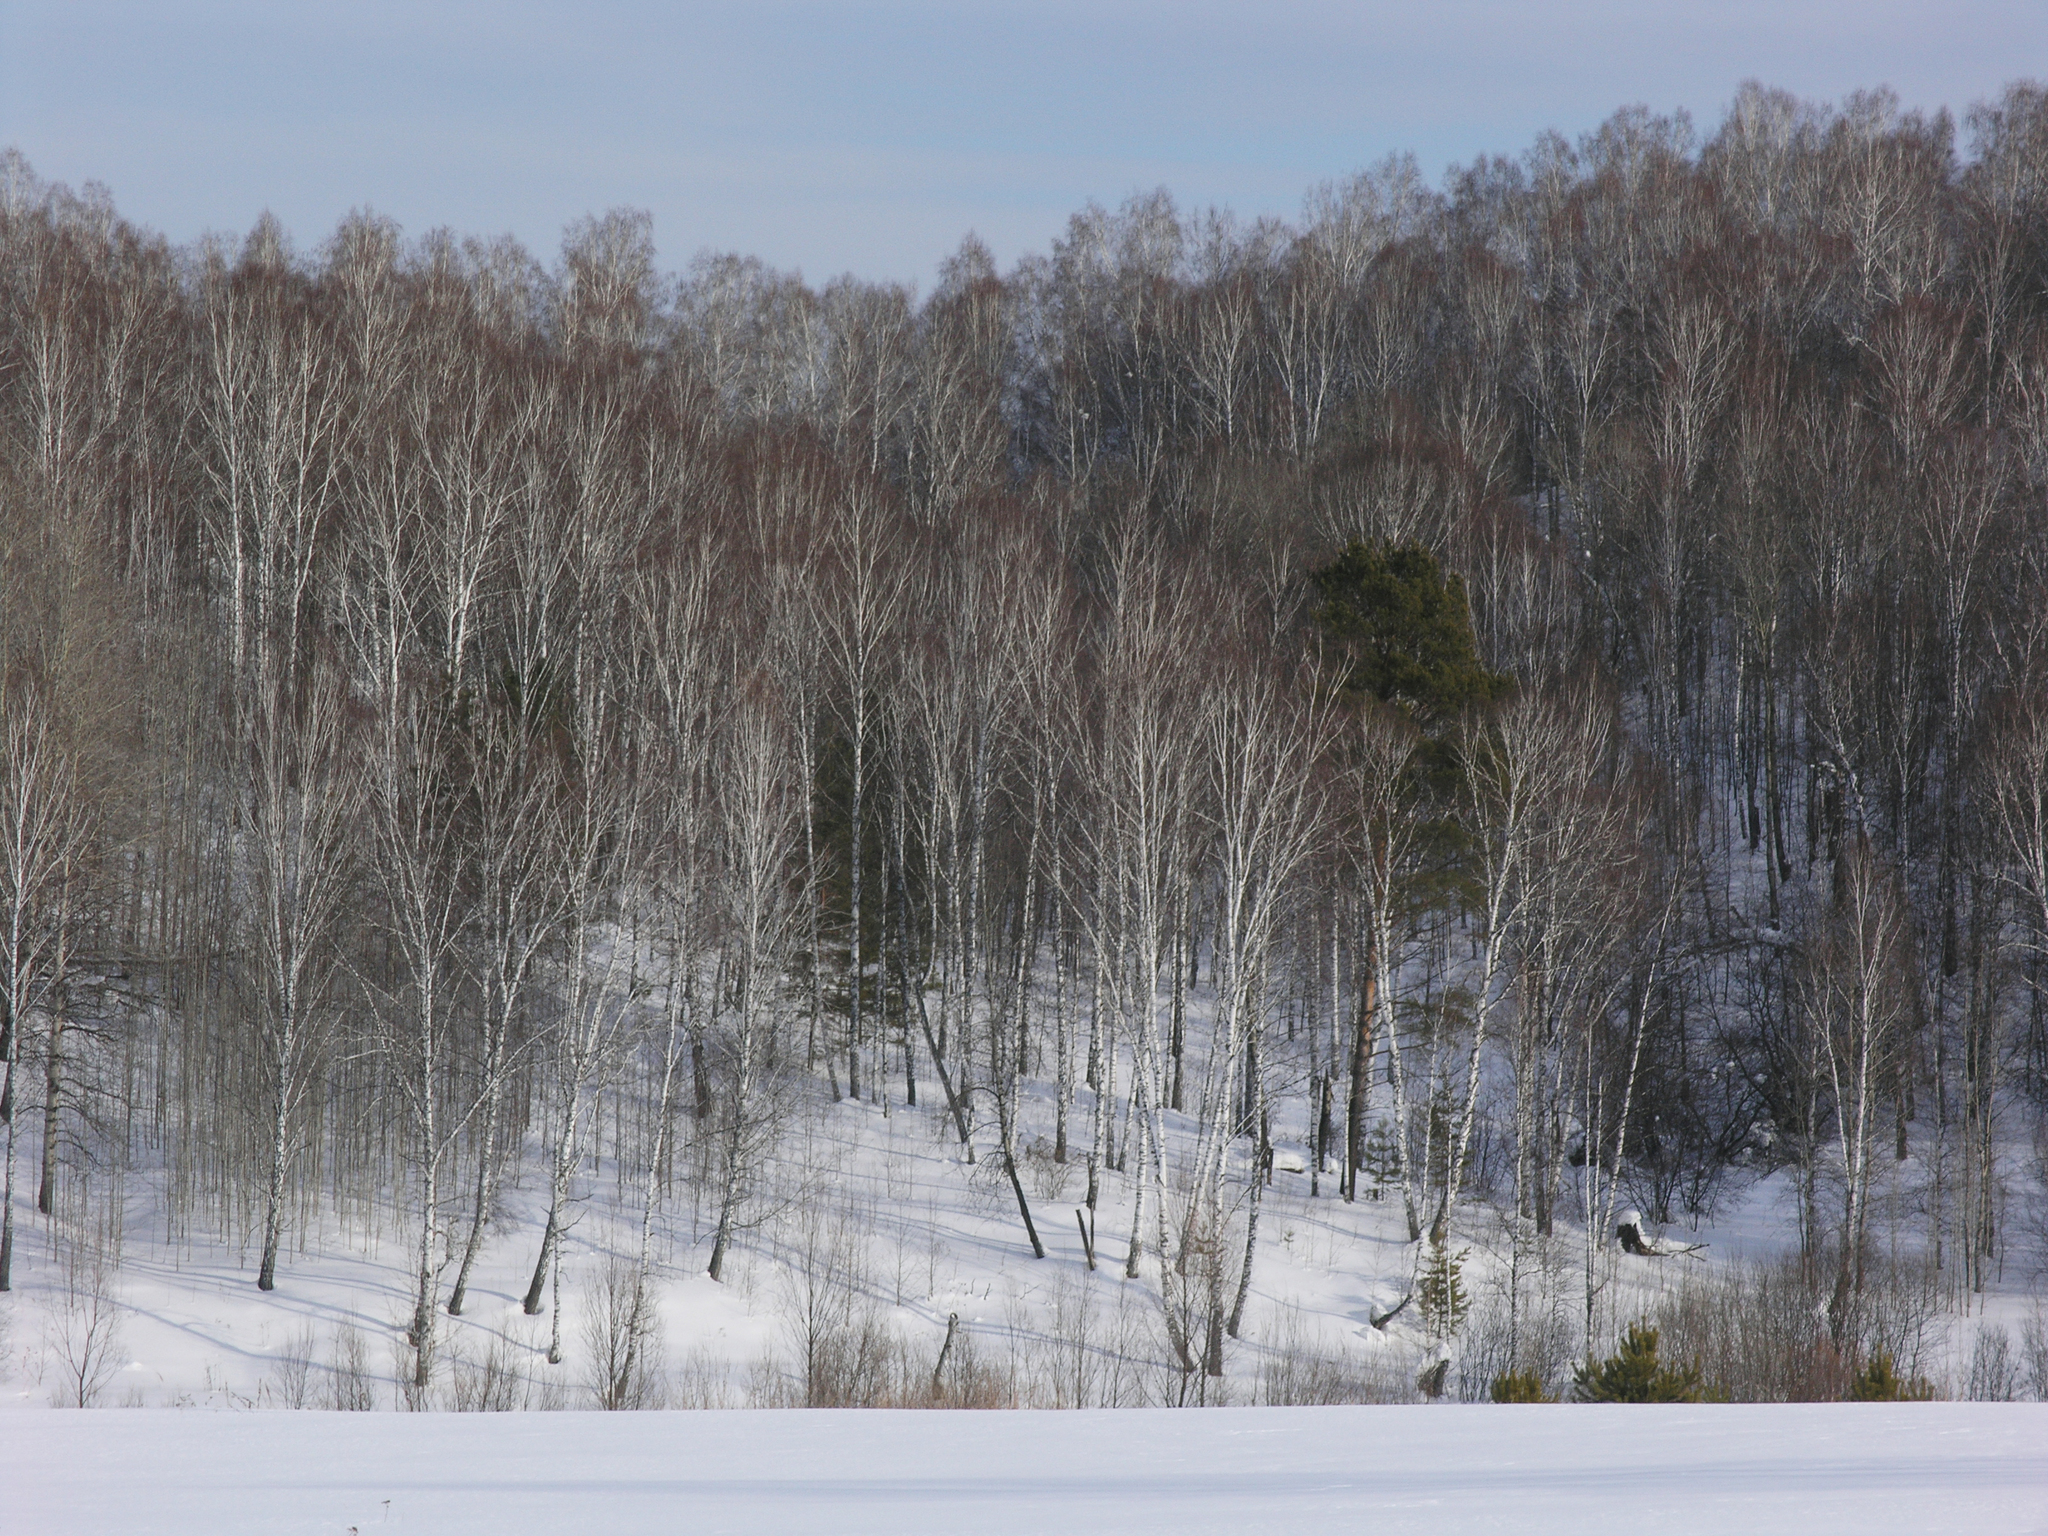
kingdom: Plantae
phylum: Tracheophyta
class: Pinopsida
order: Pinales
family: Pinaceae
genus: Pinus
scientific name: Pinus sylvestris
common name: Scots pine
